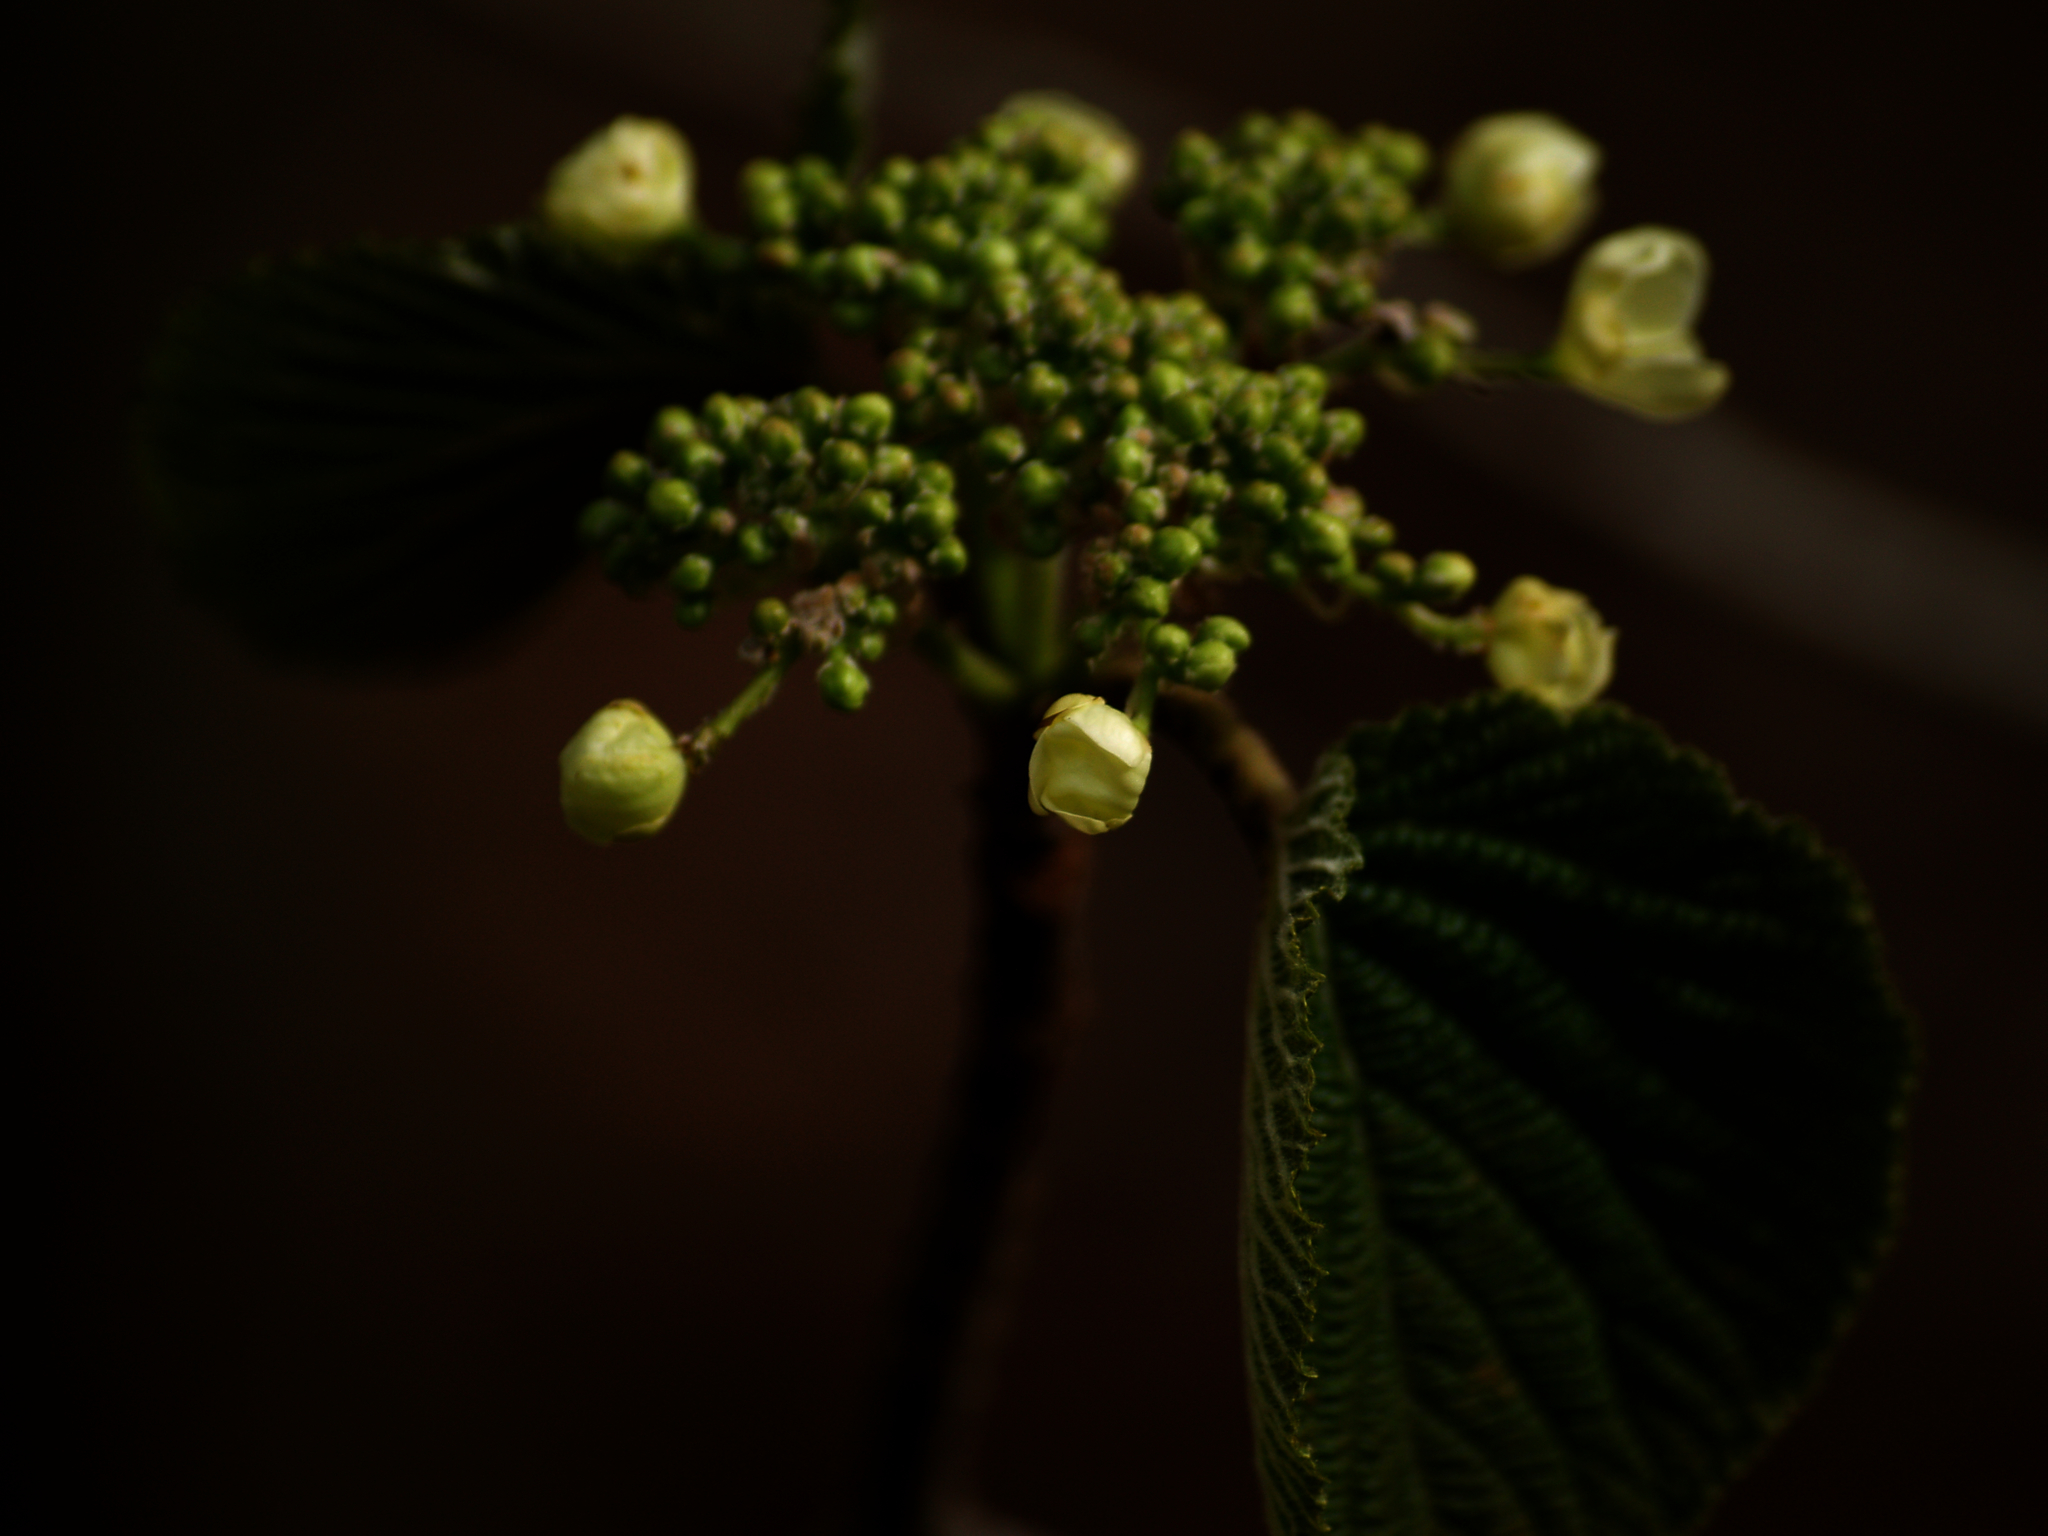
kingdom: Plantae
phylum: Tracheophyta
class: Magnoliopsida
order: Dipsacales
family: Viburnaceae
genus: Viburnum
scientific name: Viburnum lantanoides
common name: Hobblebush
